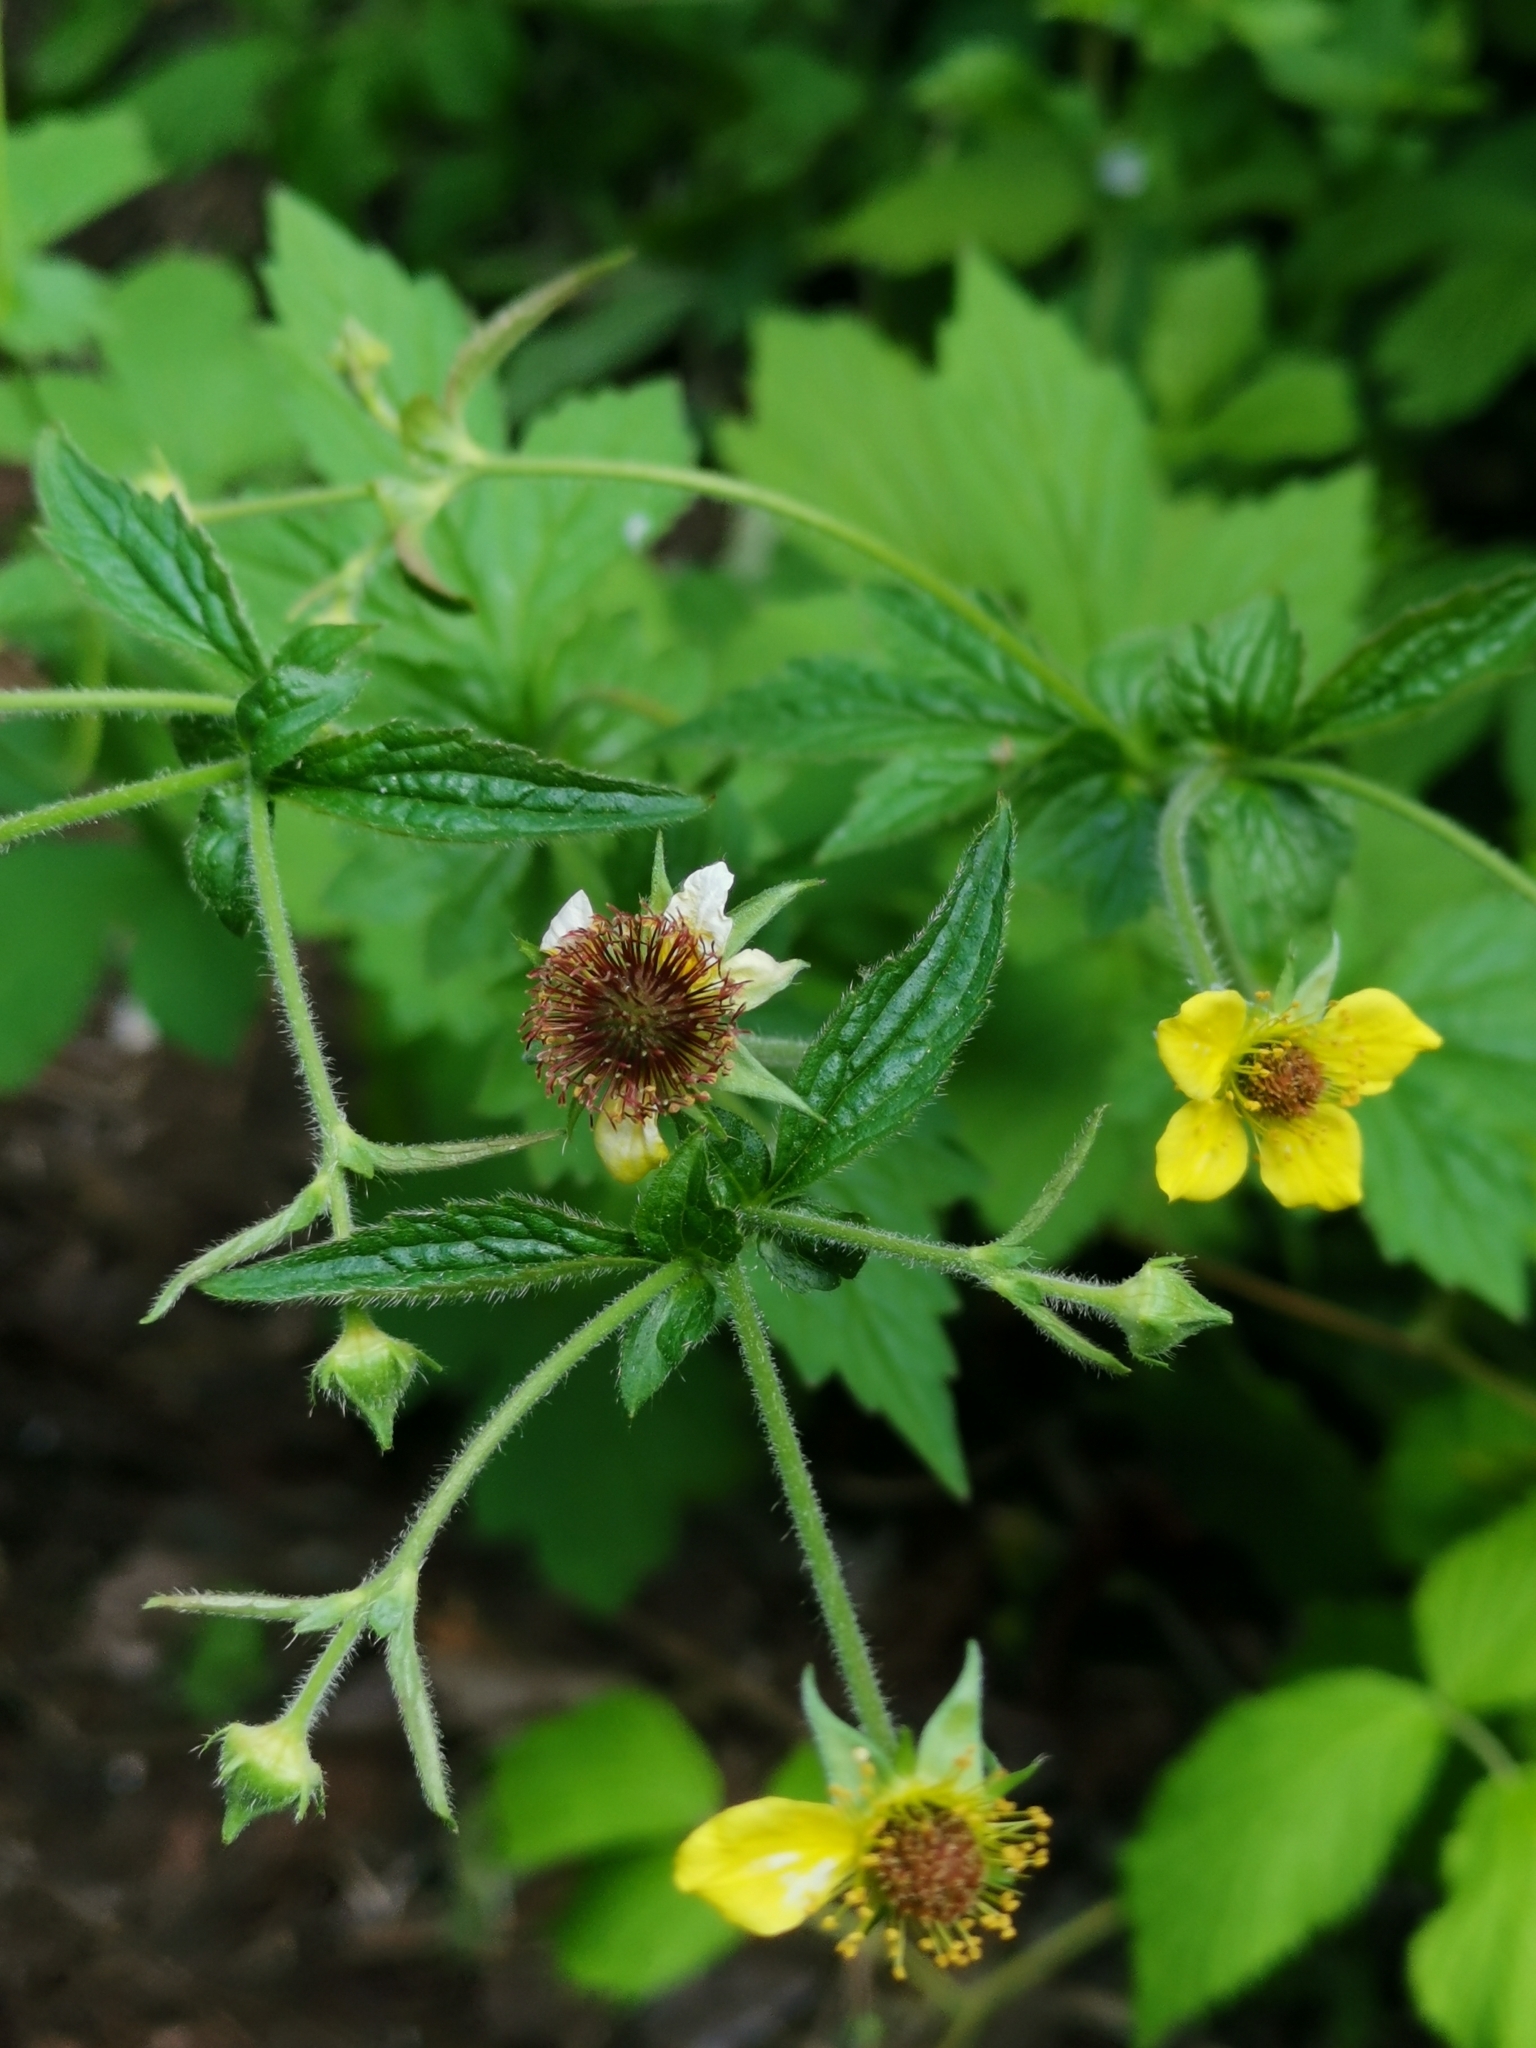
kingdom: Plantae
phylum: Tracheophyta
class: Magnoliopsida
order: Rosales
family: Rosaceae
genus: Geum
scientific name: Geum urbanum
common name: Wood avens
